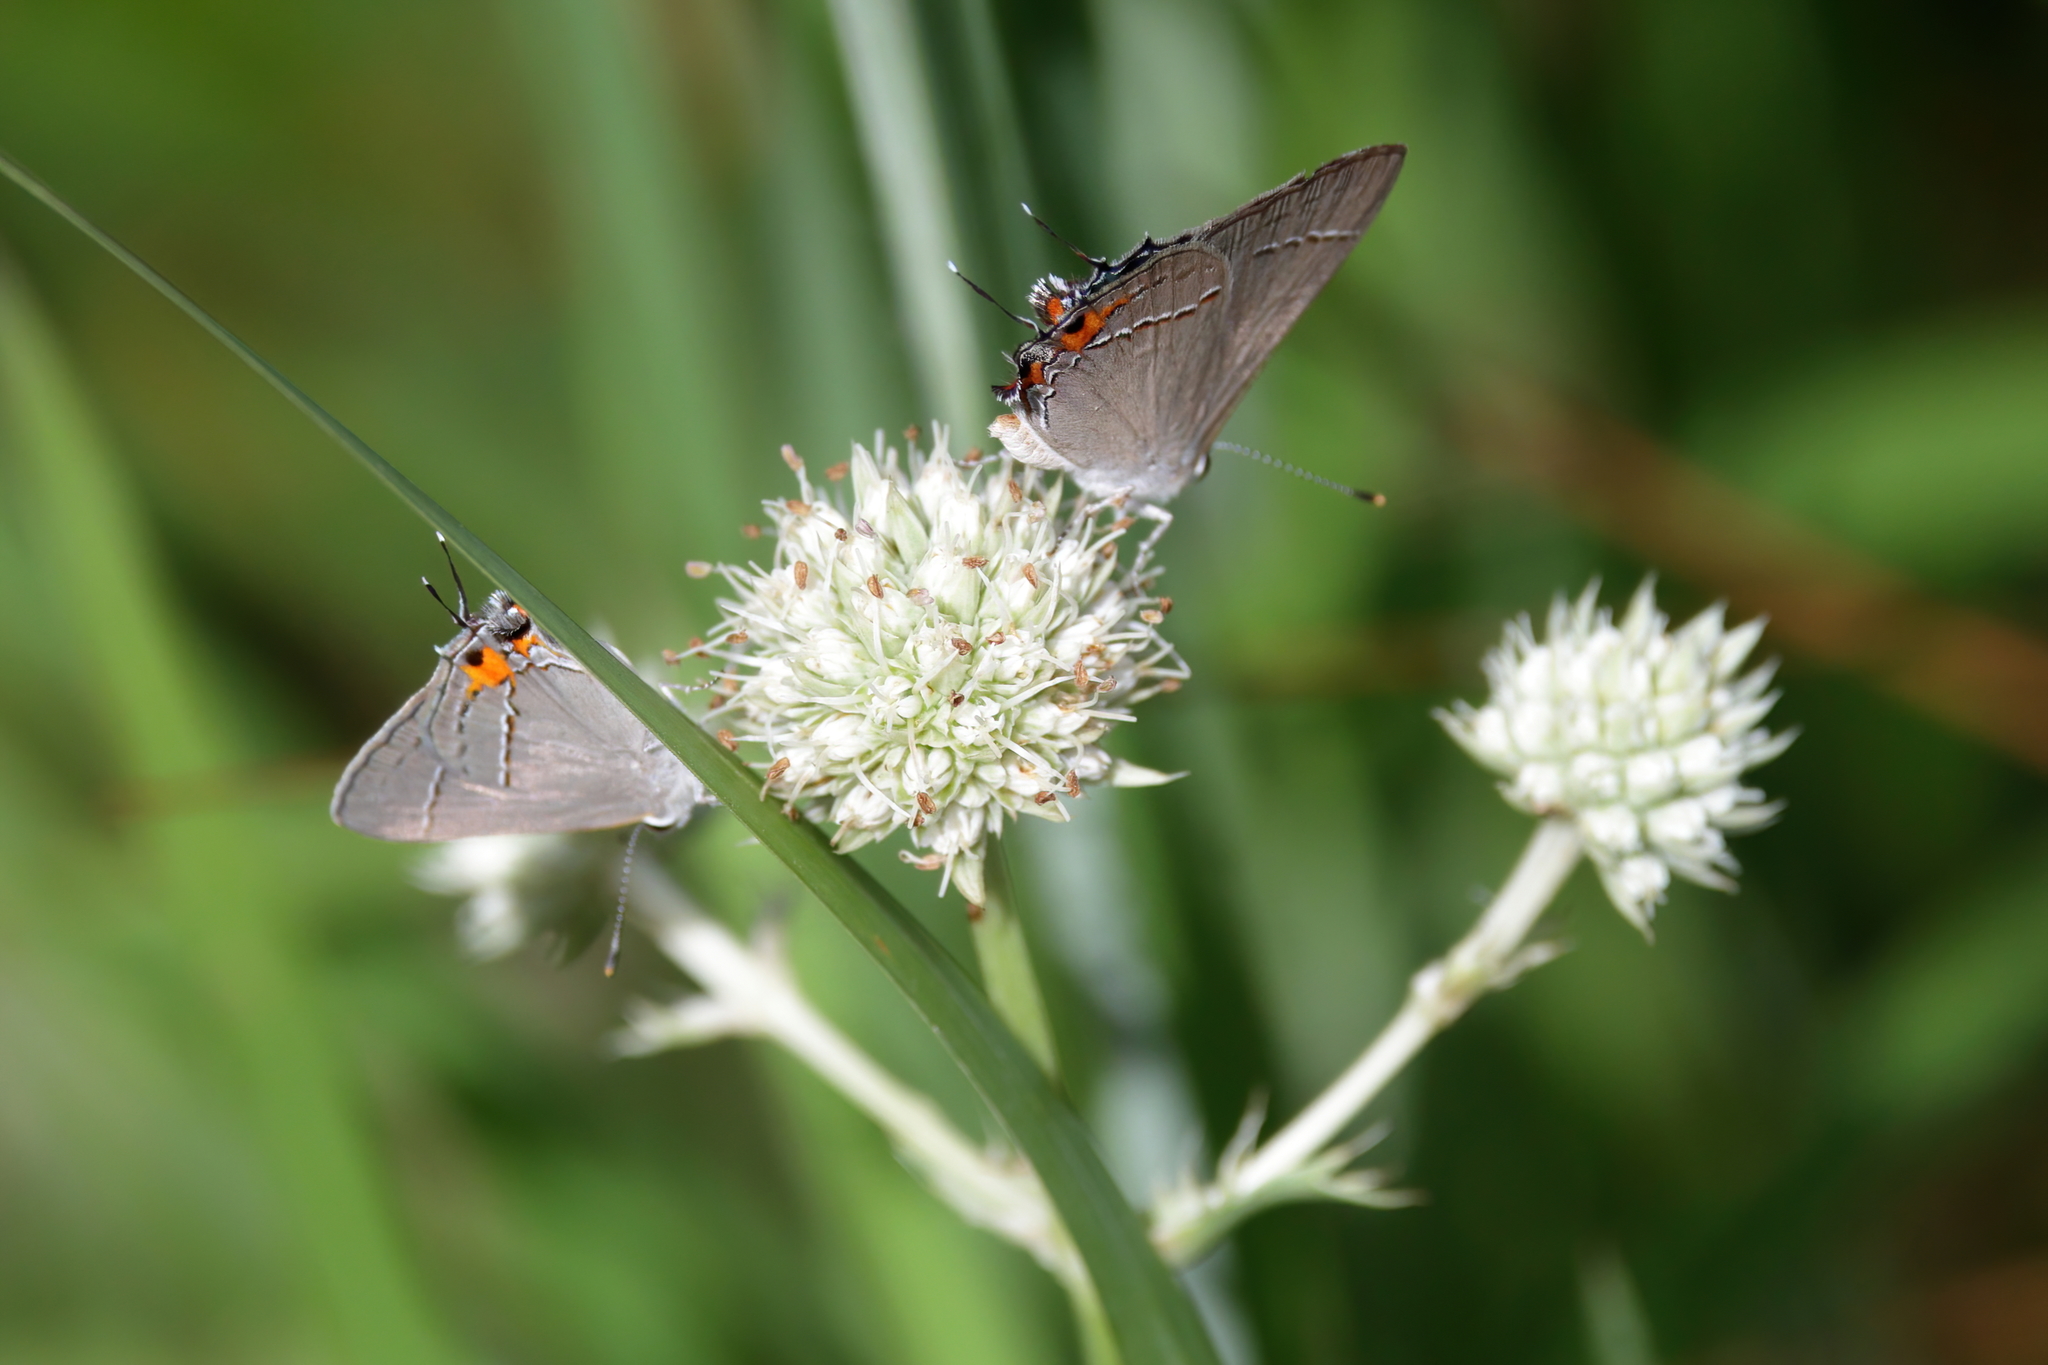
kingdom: Animalia
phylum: Arthropoda
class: Insecta
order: Lepidoptera
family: Lycaenidae
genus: Strymon
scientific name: Strymon melinus
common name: Gray hairstreak
